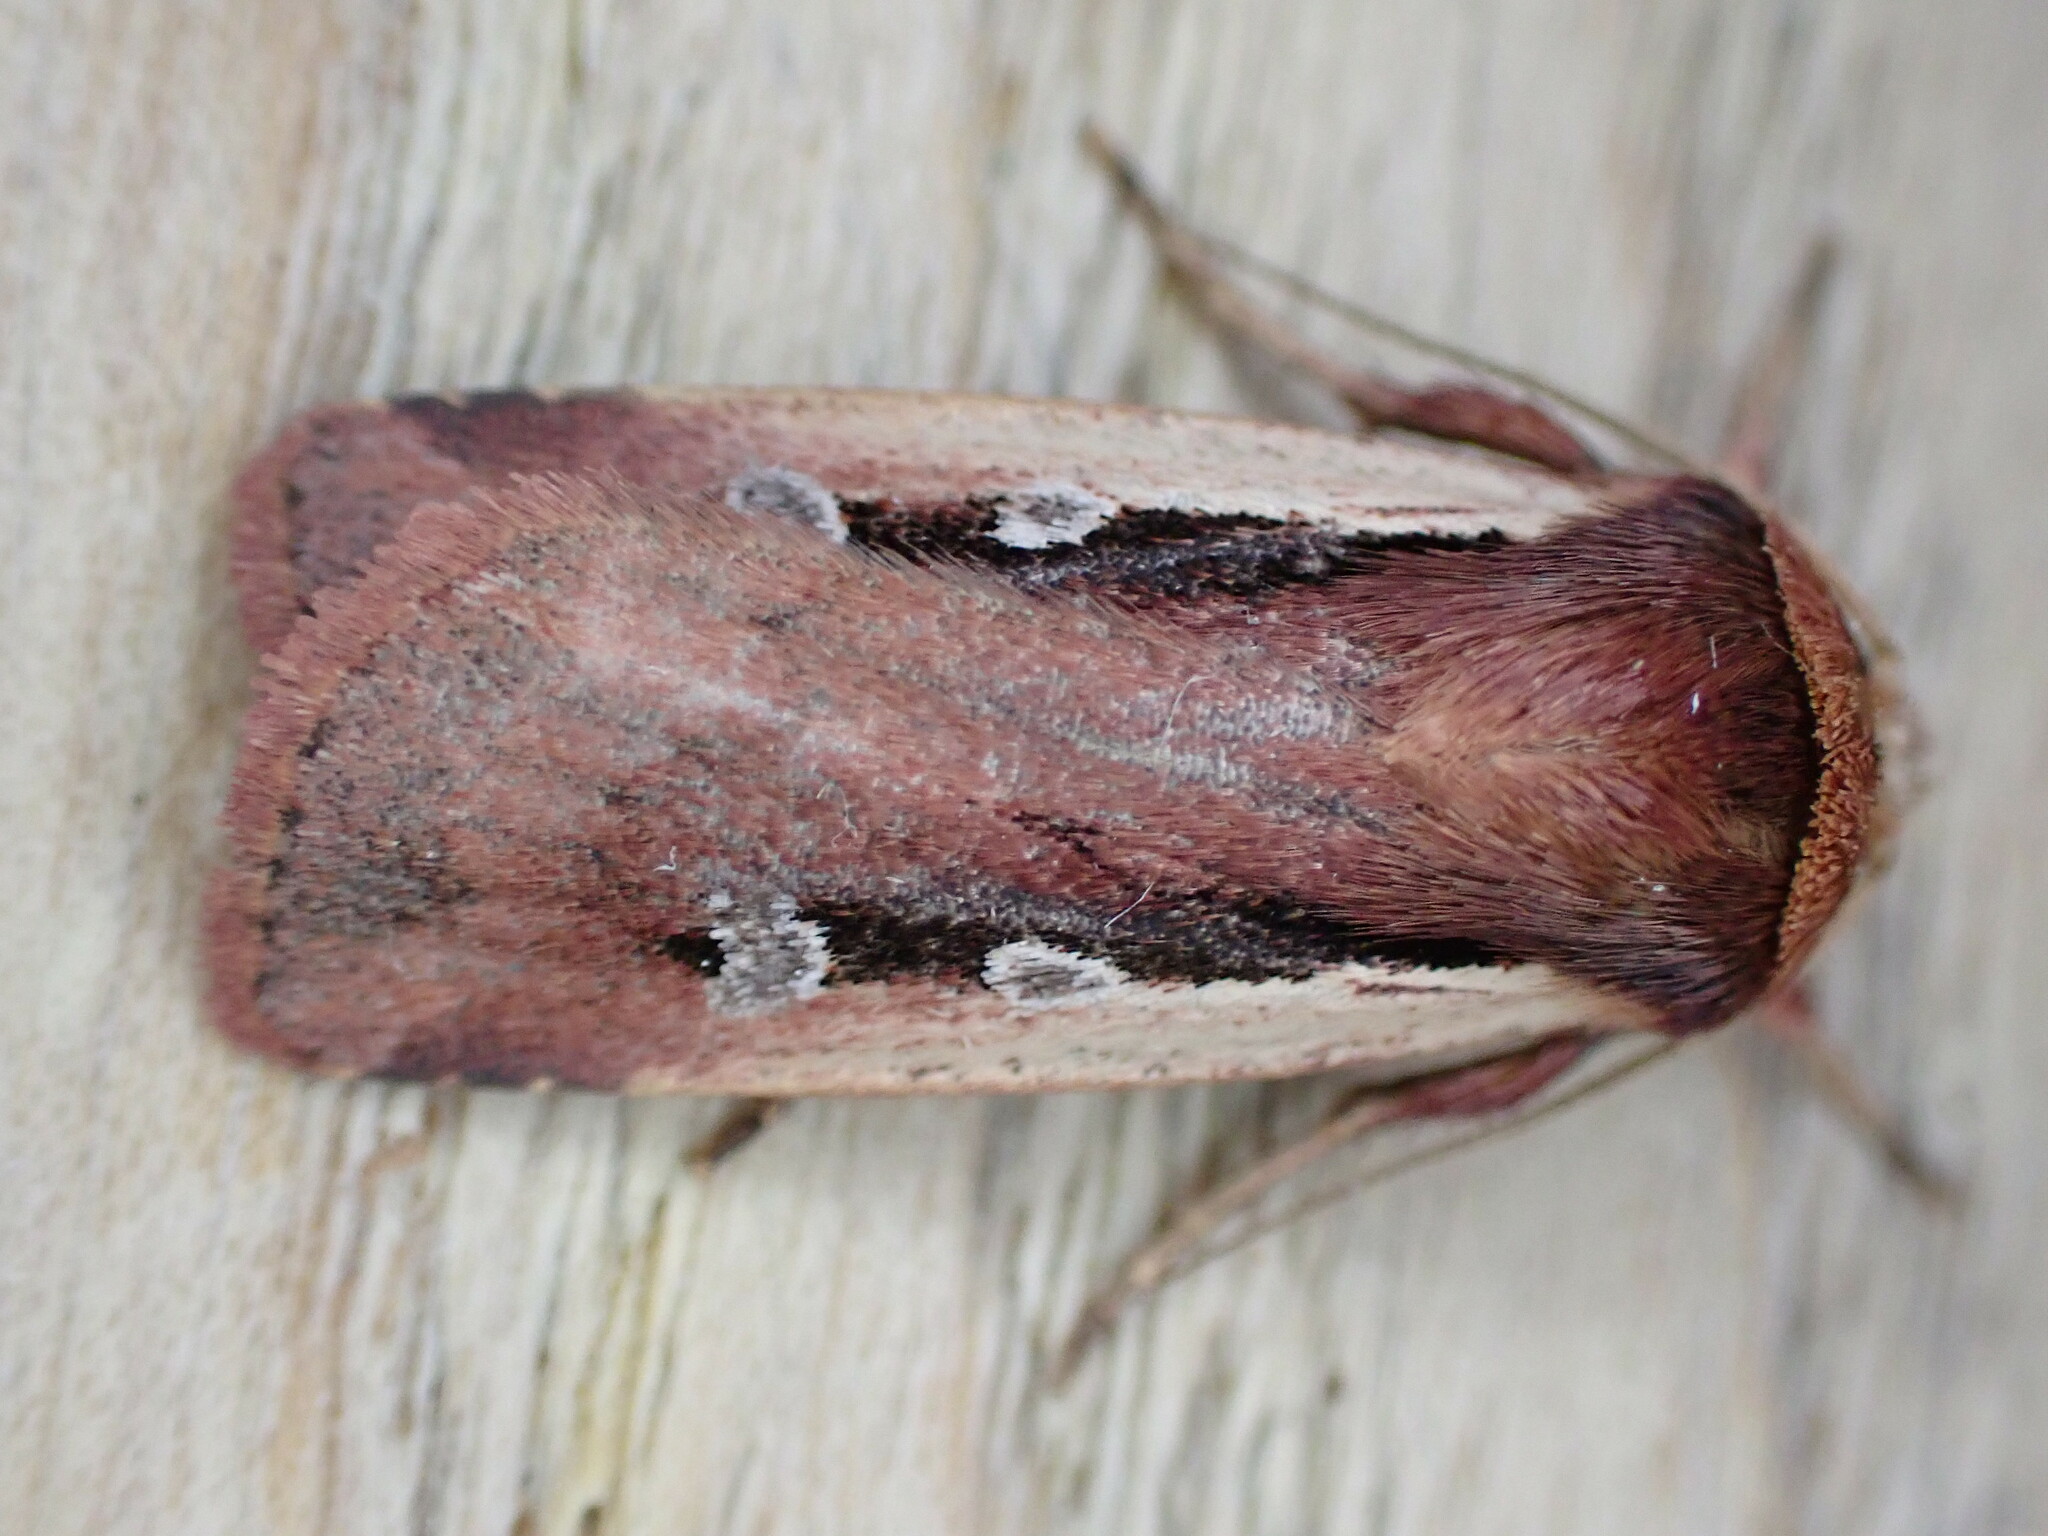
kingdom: Animalia
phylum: Arthropoda
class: Insecta
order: Lepidoptera
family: Noctuidae
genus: Ochropleura
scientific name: Ochropleura plecta
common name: Flame shoulder
